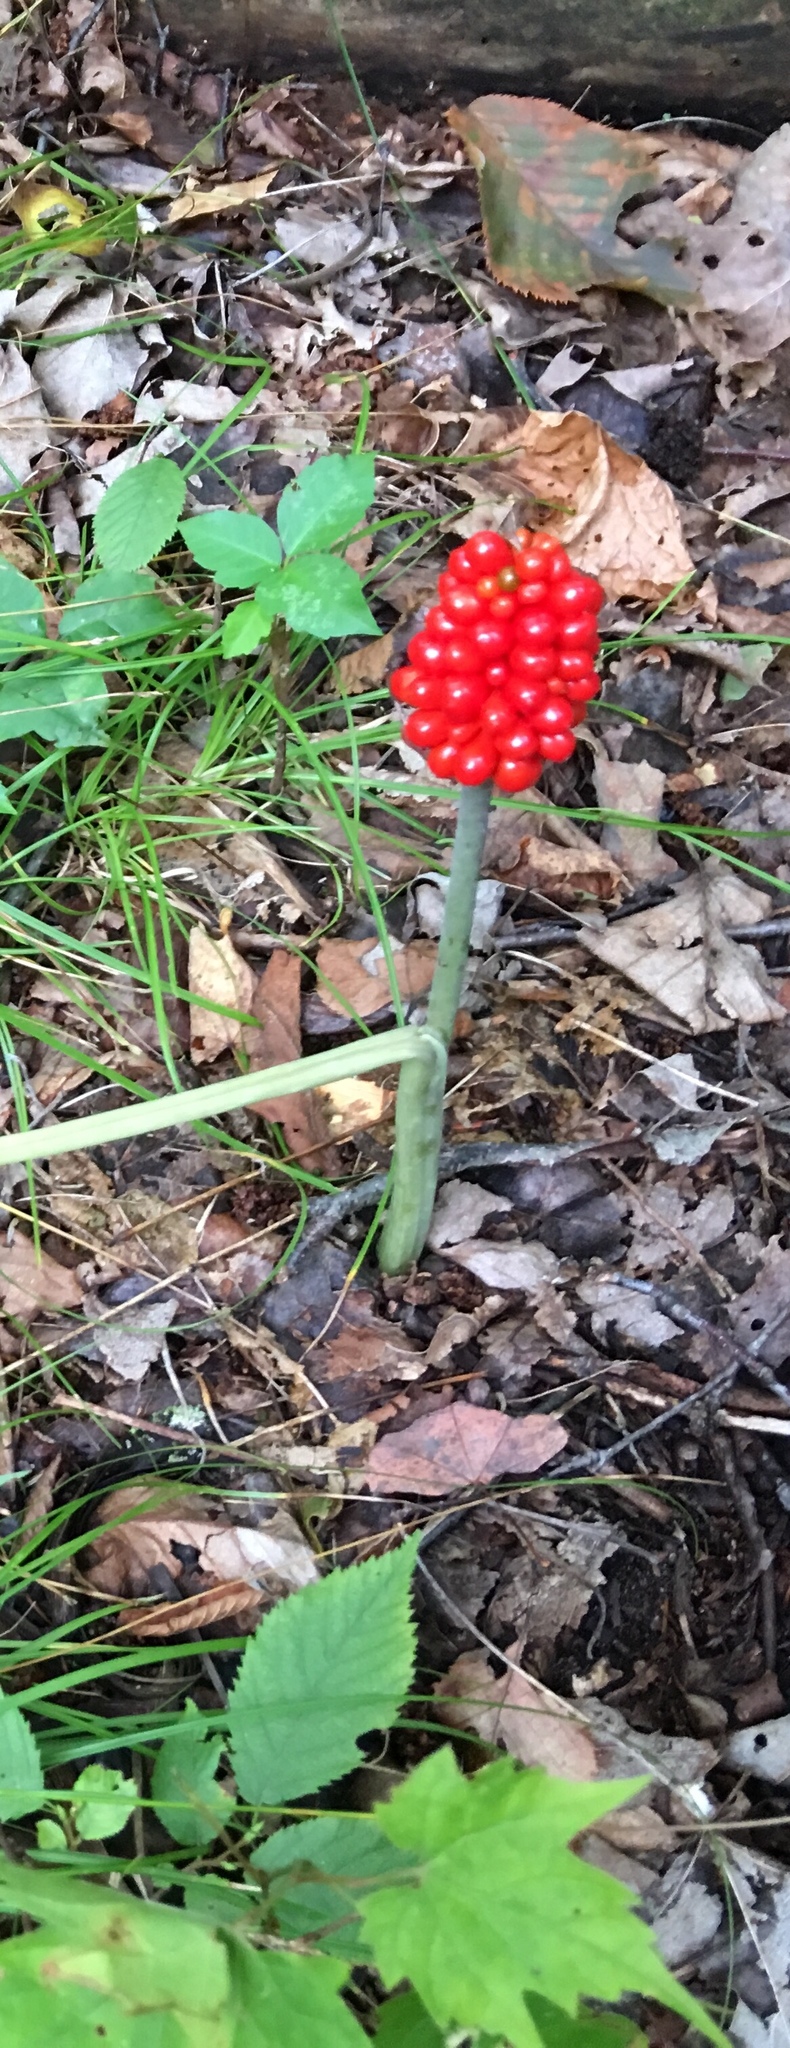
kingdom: Plantae
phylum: Tracheophyta
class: Liliopsida
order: Alismatales
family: Araceae
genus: Arisaema
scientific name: Arisaema triphyllum
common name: Jack-in-the-pulpit
